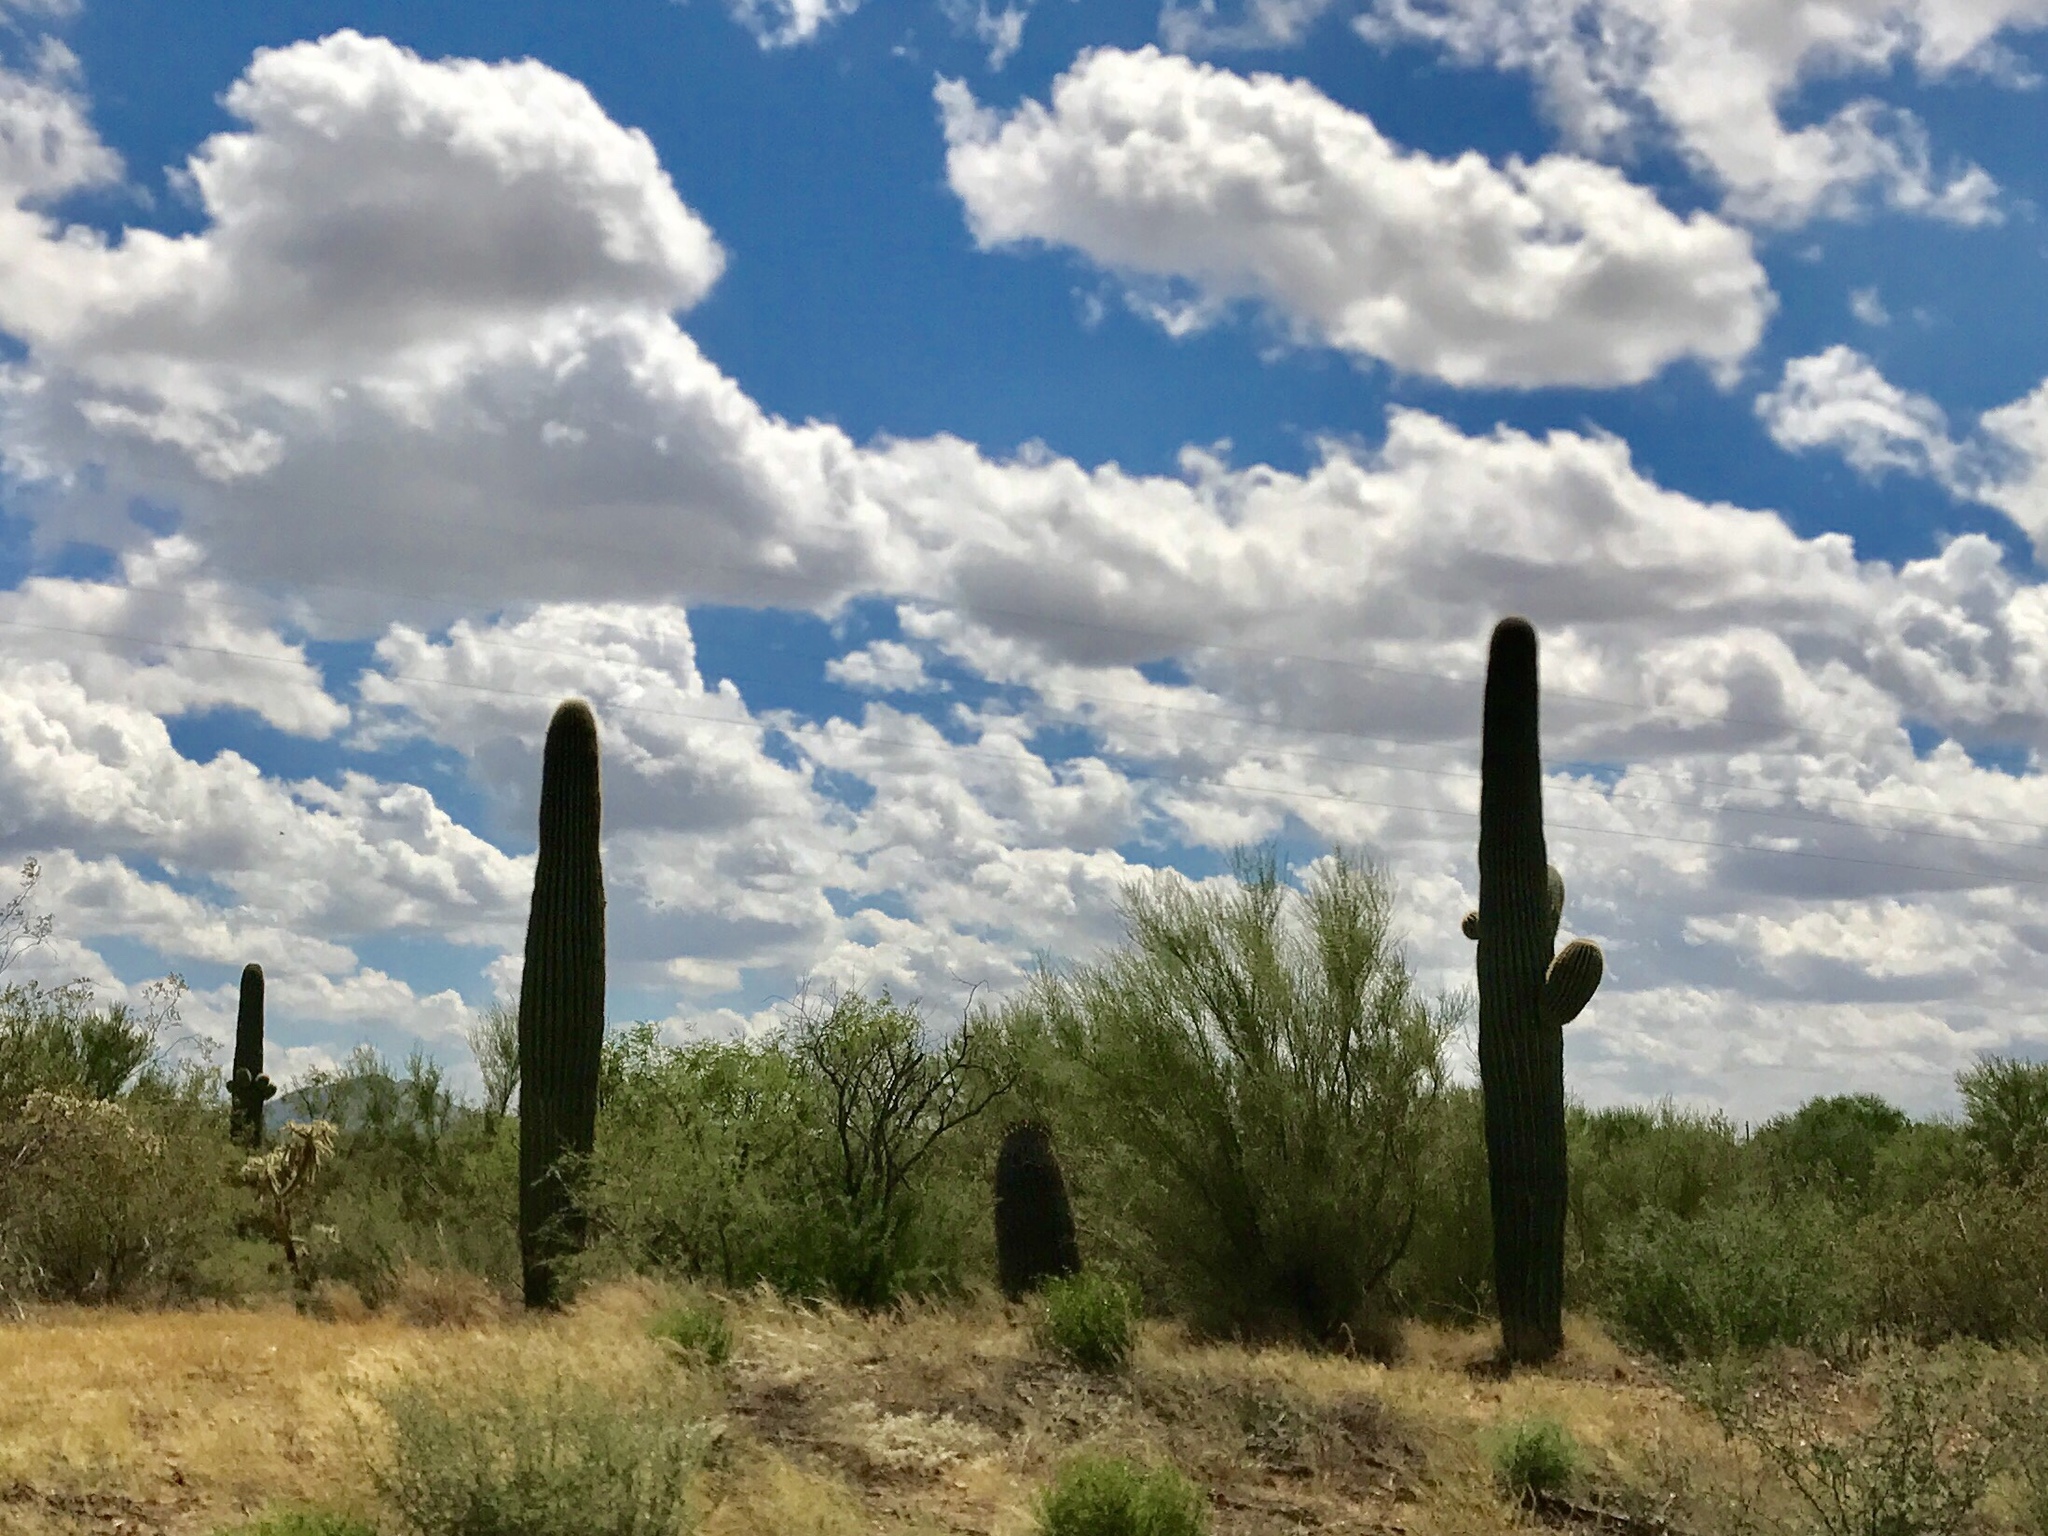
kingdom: Plantae
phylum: Tracheophyta
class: Magnoliopsida
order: Caryophyllales
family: Cactaceae
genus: Carnegiea
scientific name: Carnegiea gigantea
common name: Saguaro
